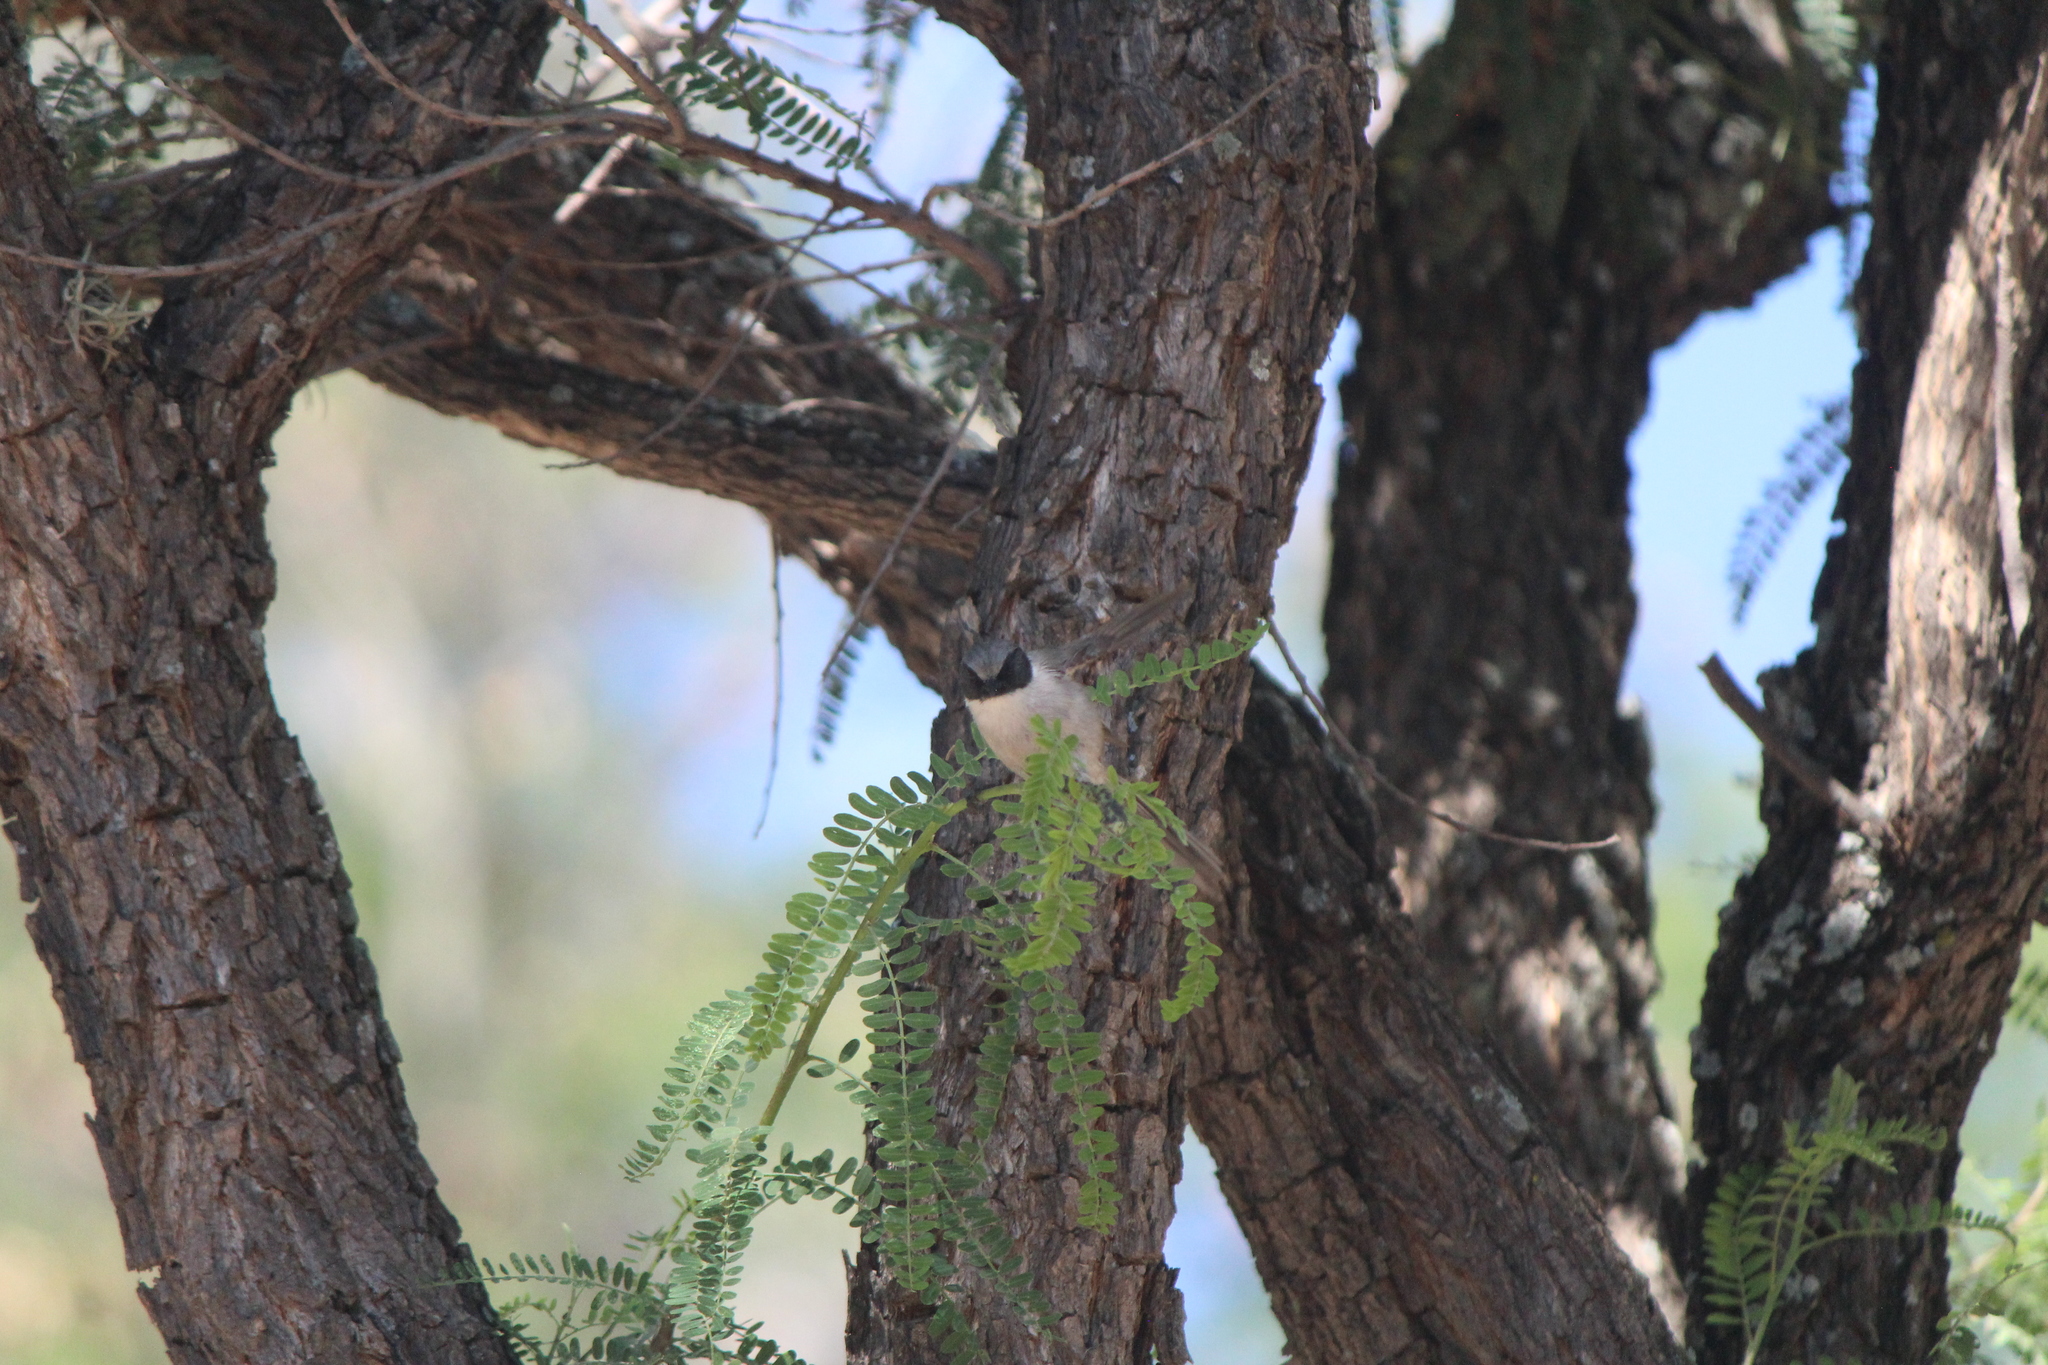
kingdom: Animalia
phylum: Chordata
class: Aves
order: Passeriformes
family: Aegithalidae
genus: Psaltriparus
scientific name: Psaltriparus minimus
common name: American bushtit
